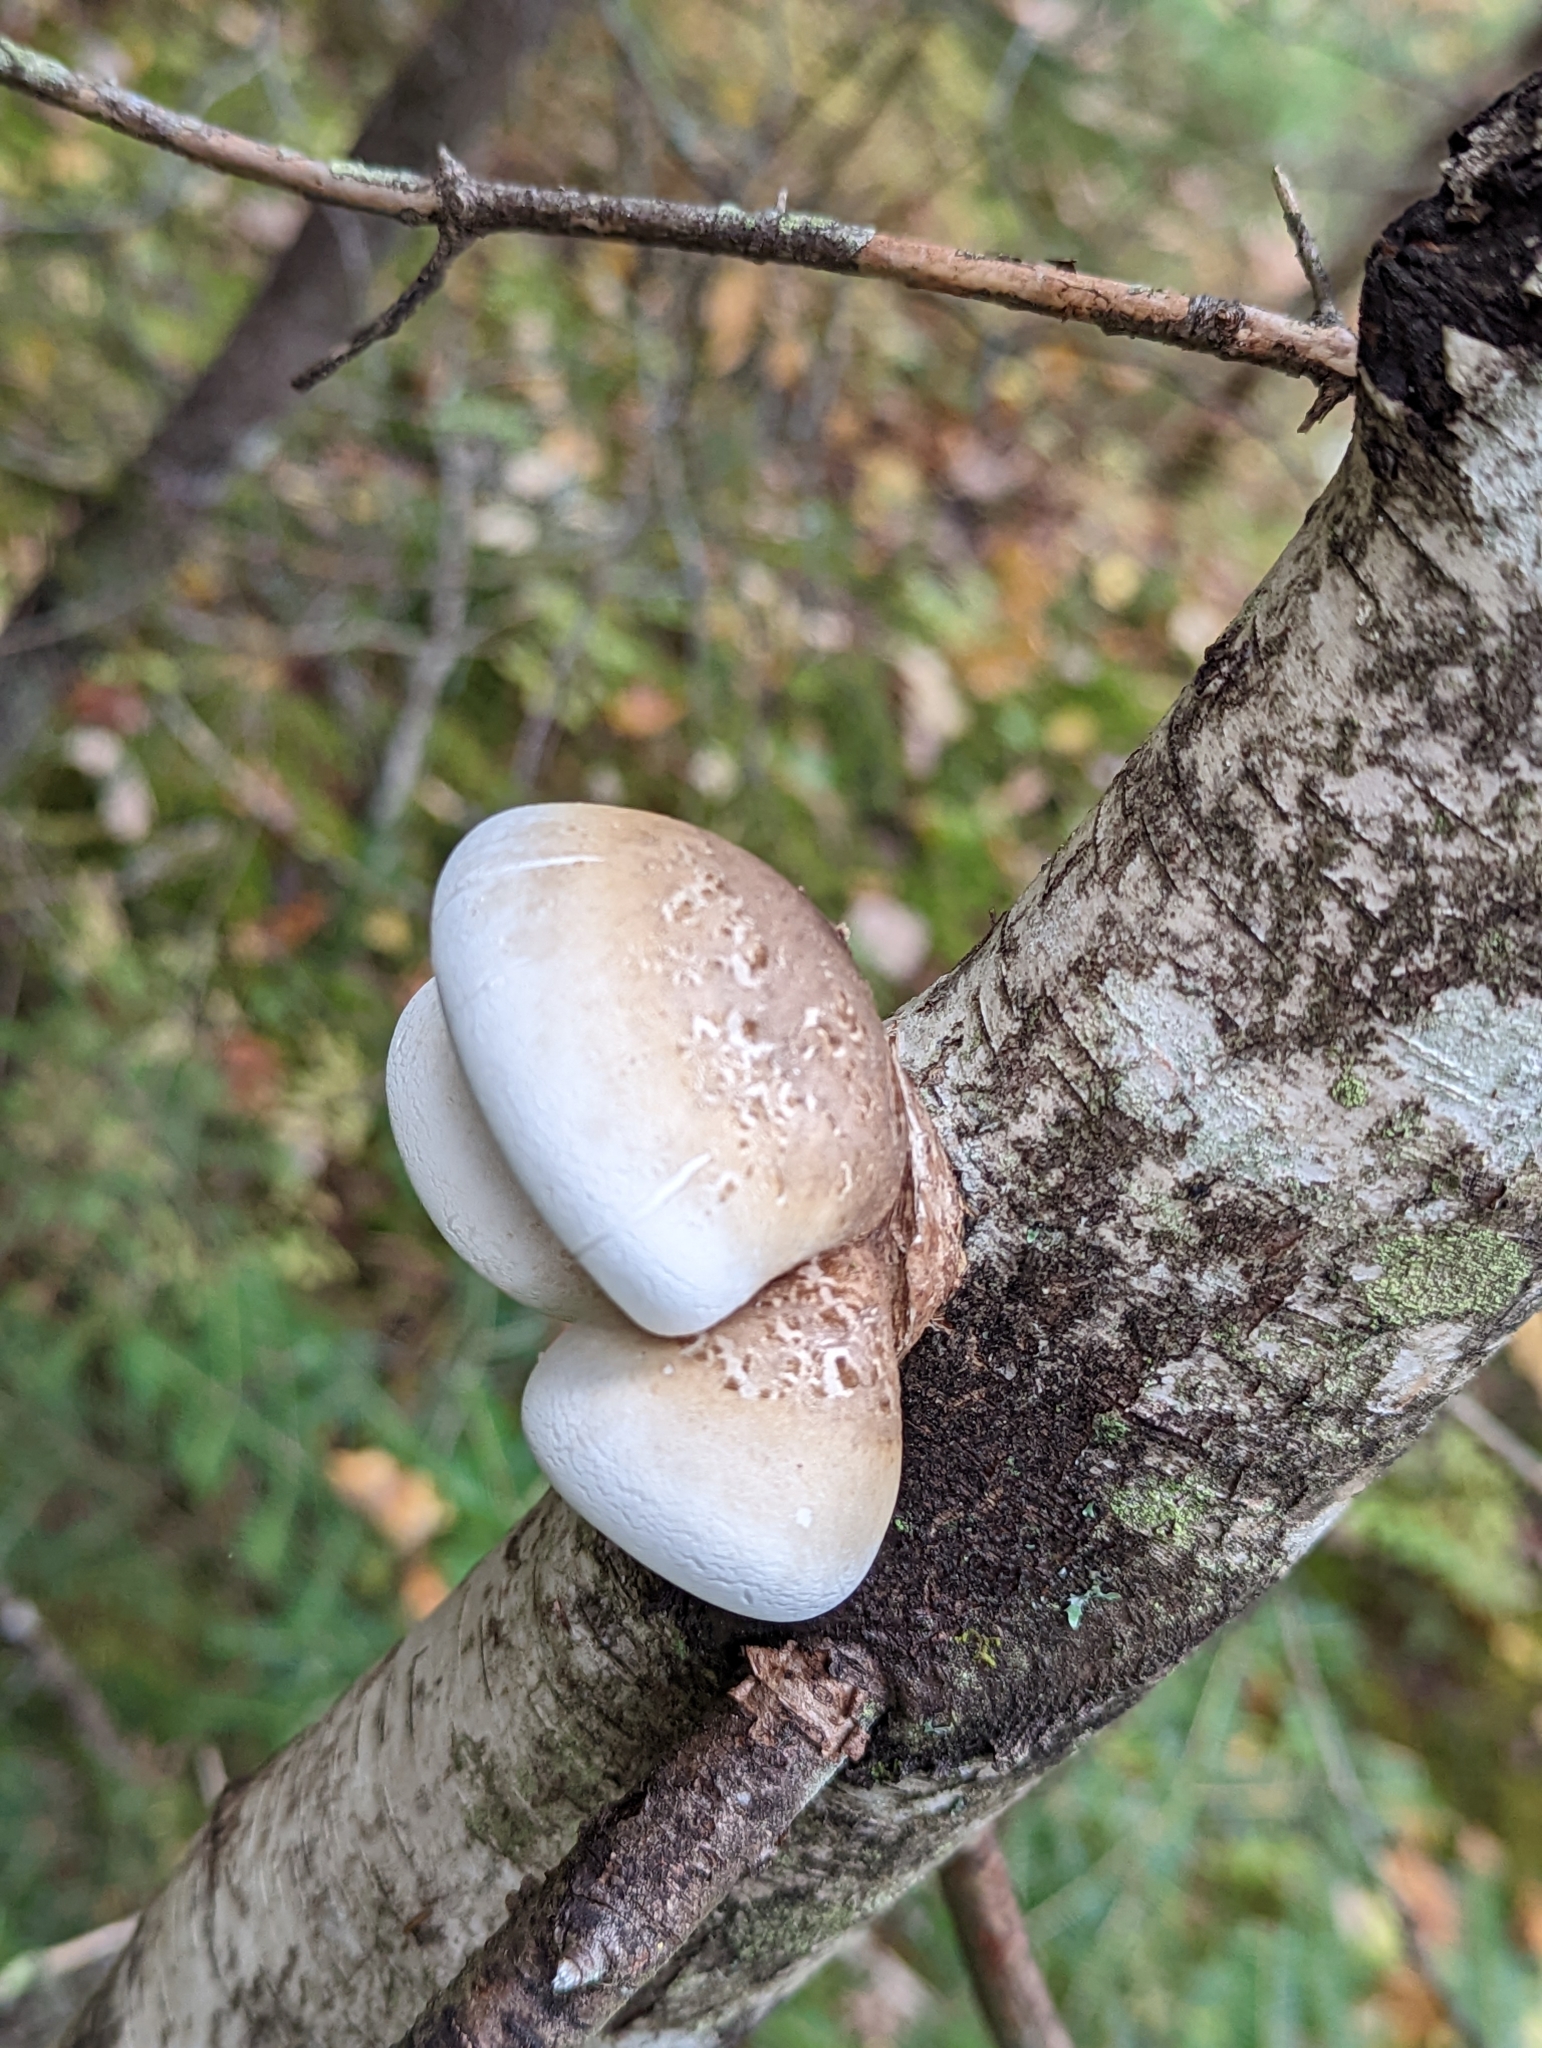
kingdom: Fungi
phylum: Basidiomycota
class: Agaricomycetes
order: Polyporales
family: Fomitopsidaceae
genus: Fomitopsis
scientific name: Fomitopsis betulina
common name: Birch polypore
